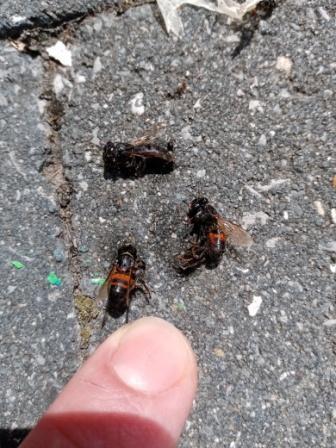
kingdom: Animalia
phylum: Arthropoda
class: Insecta
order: Hymenoptera
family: Apidae
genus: Apis
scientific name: Apis mellifera
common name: Honey bee
